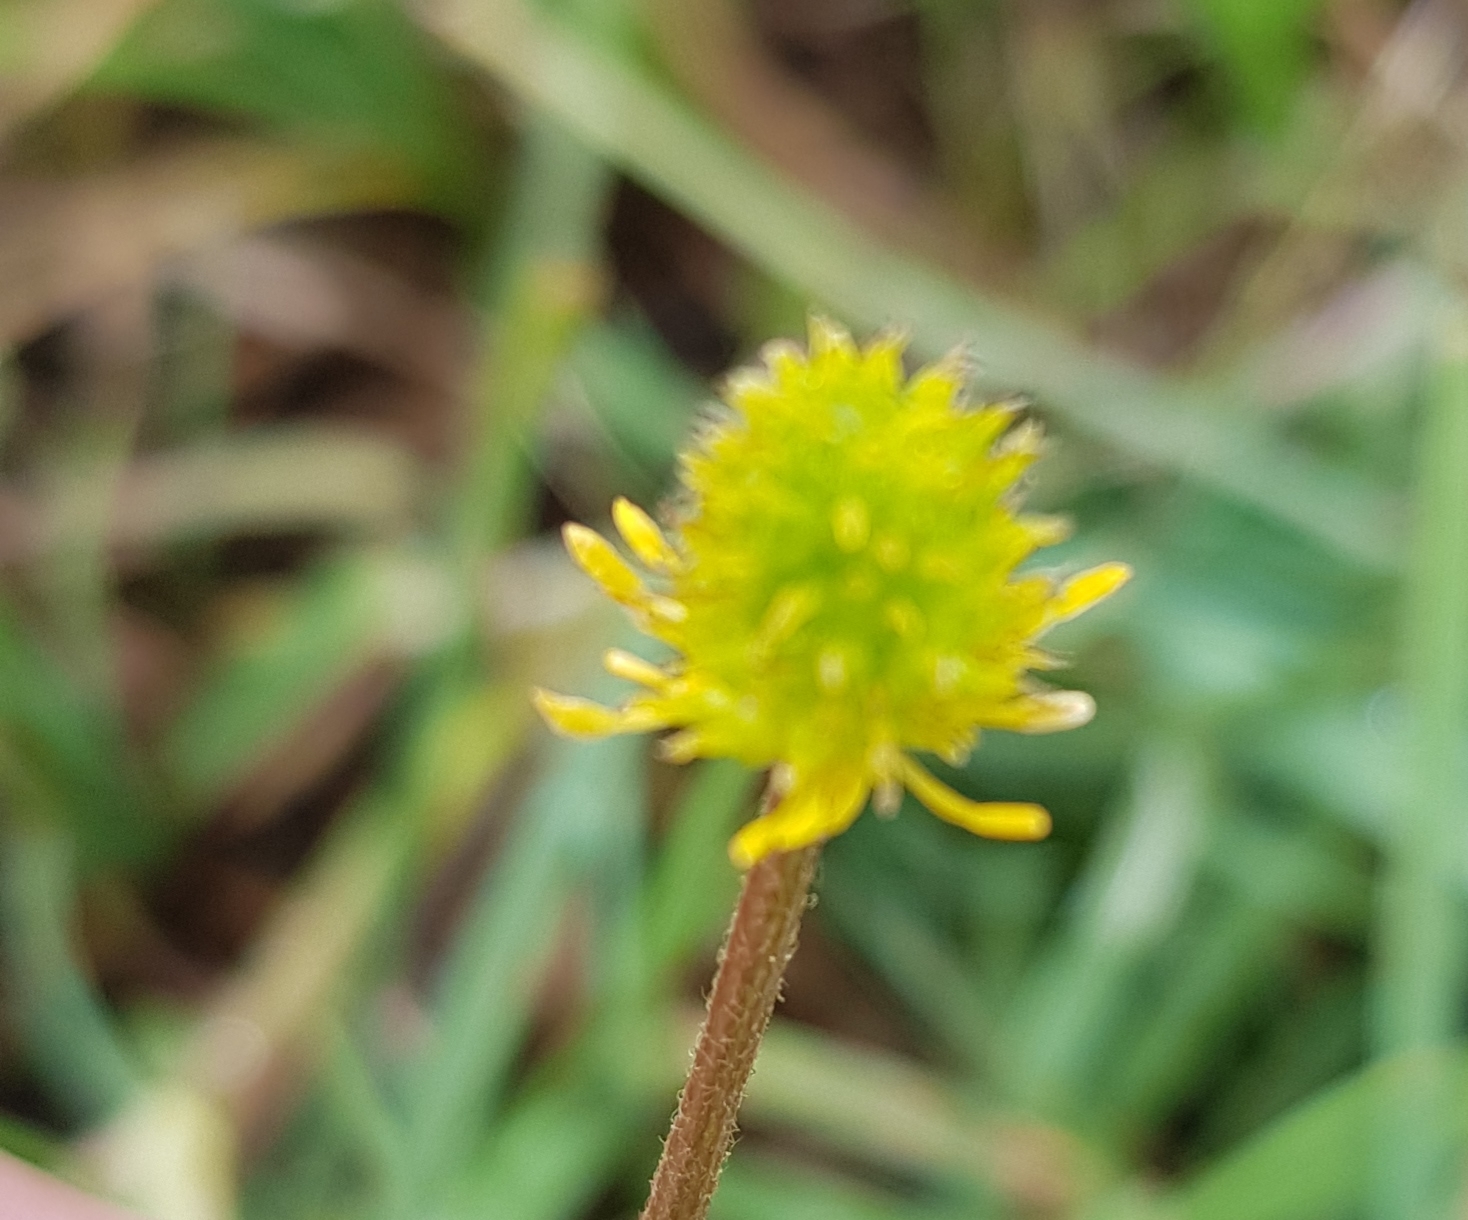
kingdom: Plantae
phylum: Tracheophyta
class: Magnoliopsida
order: Rosales
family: Rosaceae
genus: Geum
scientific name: Geum aleppicum
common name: Yellow avens
